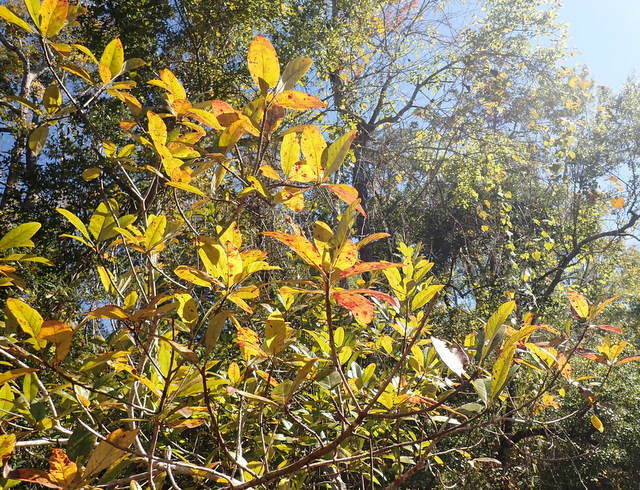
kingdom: Plantae
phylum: Tracheophyta
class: Magnoliopsida
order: Cornales
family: Nyssaceae
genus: Nyssa
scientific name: Nyssa ogeche
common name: Ogeechee tupelo
